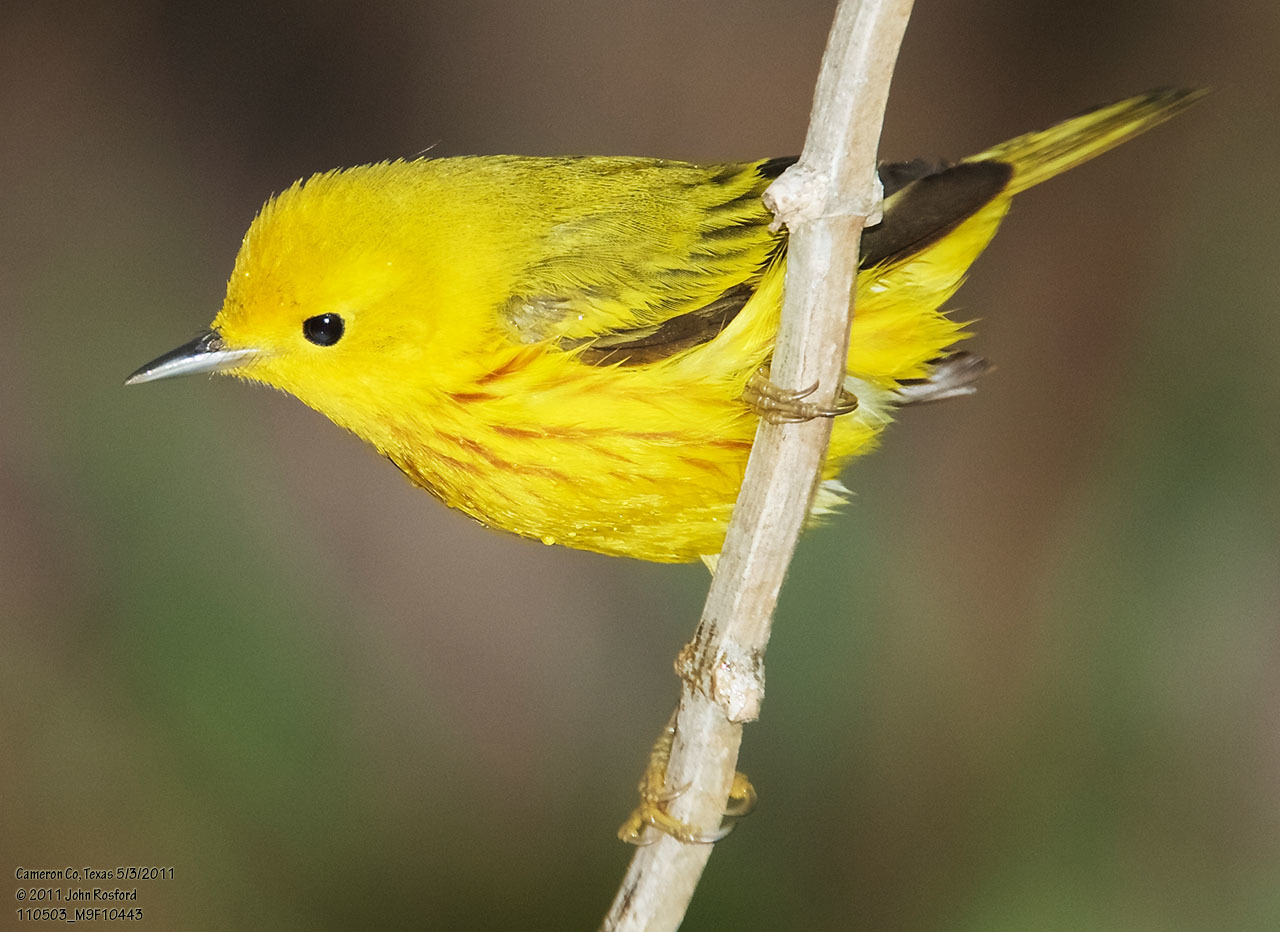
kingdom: Animalia
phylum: Chordata
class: Aves
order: Passeriformes
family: Parulidae
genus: Setophaga
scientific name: Setophaga petechia
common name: Yellow warbler
